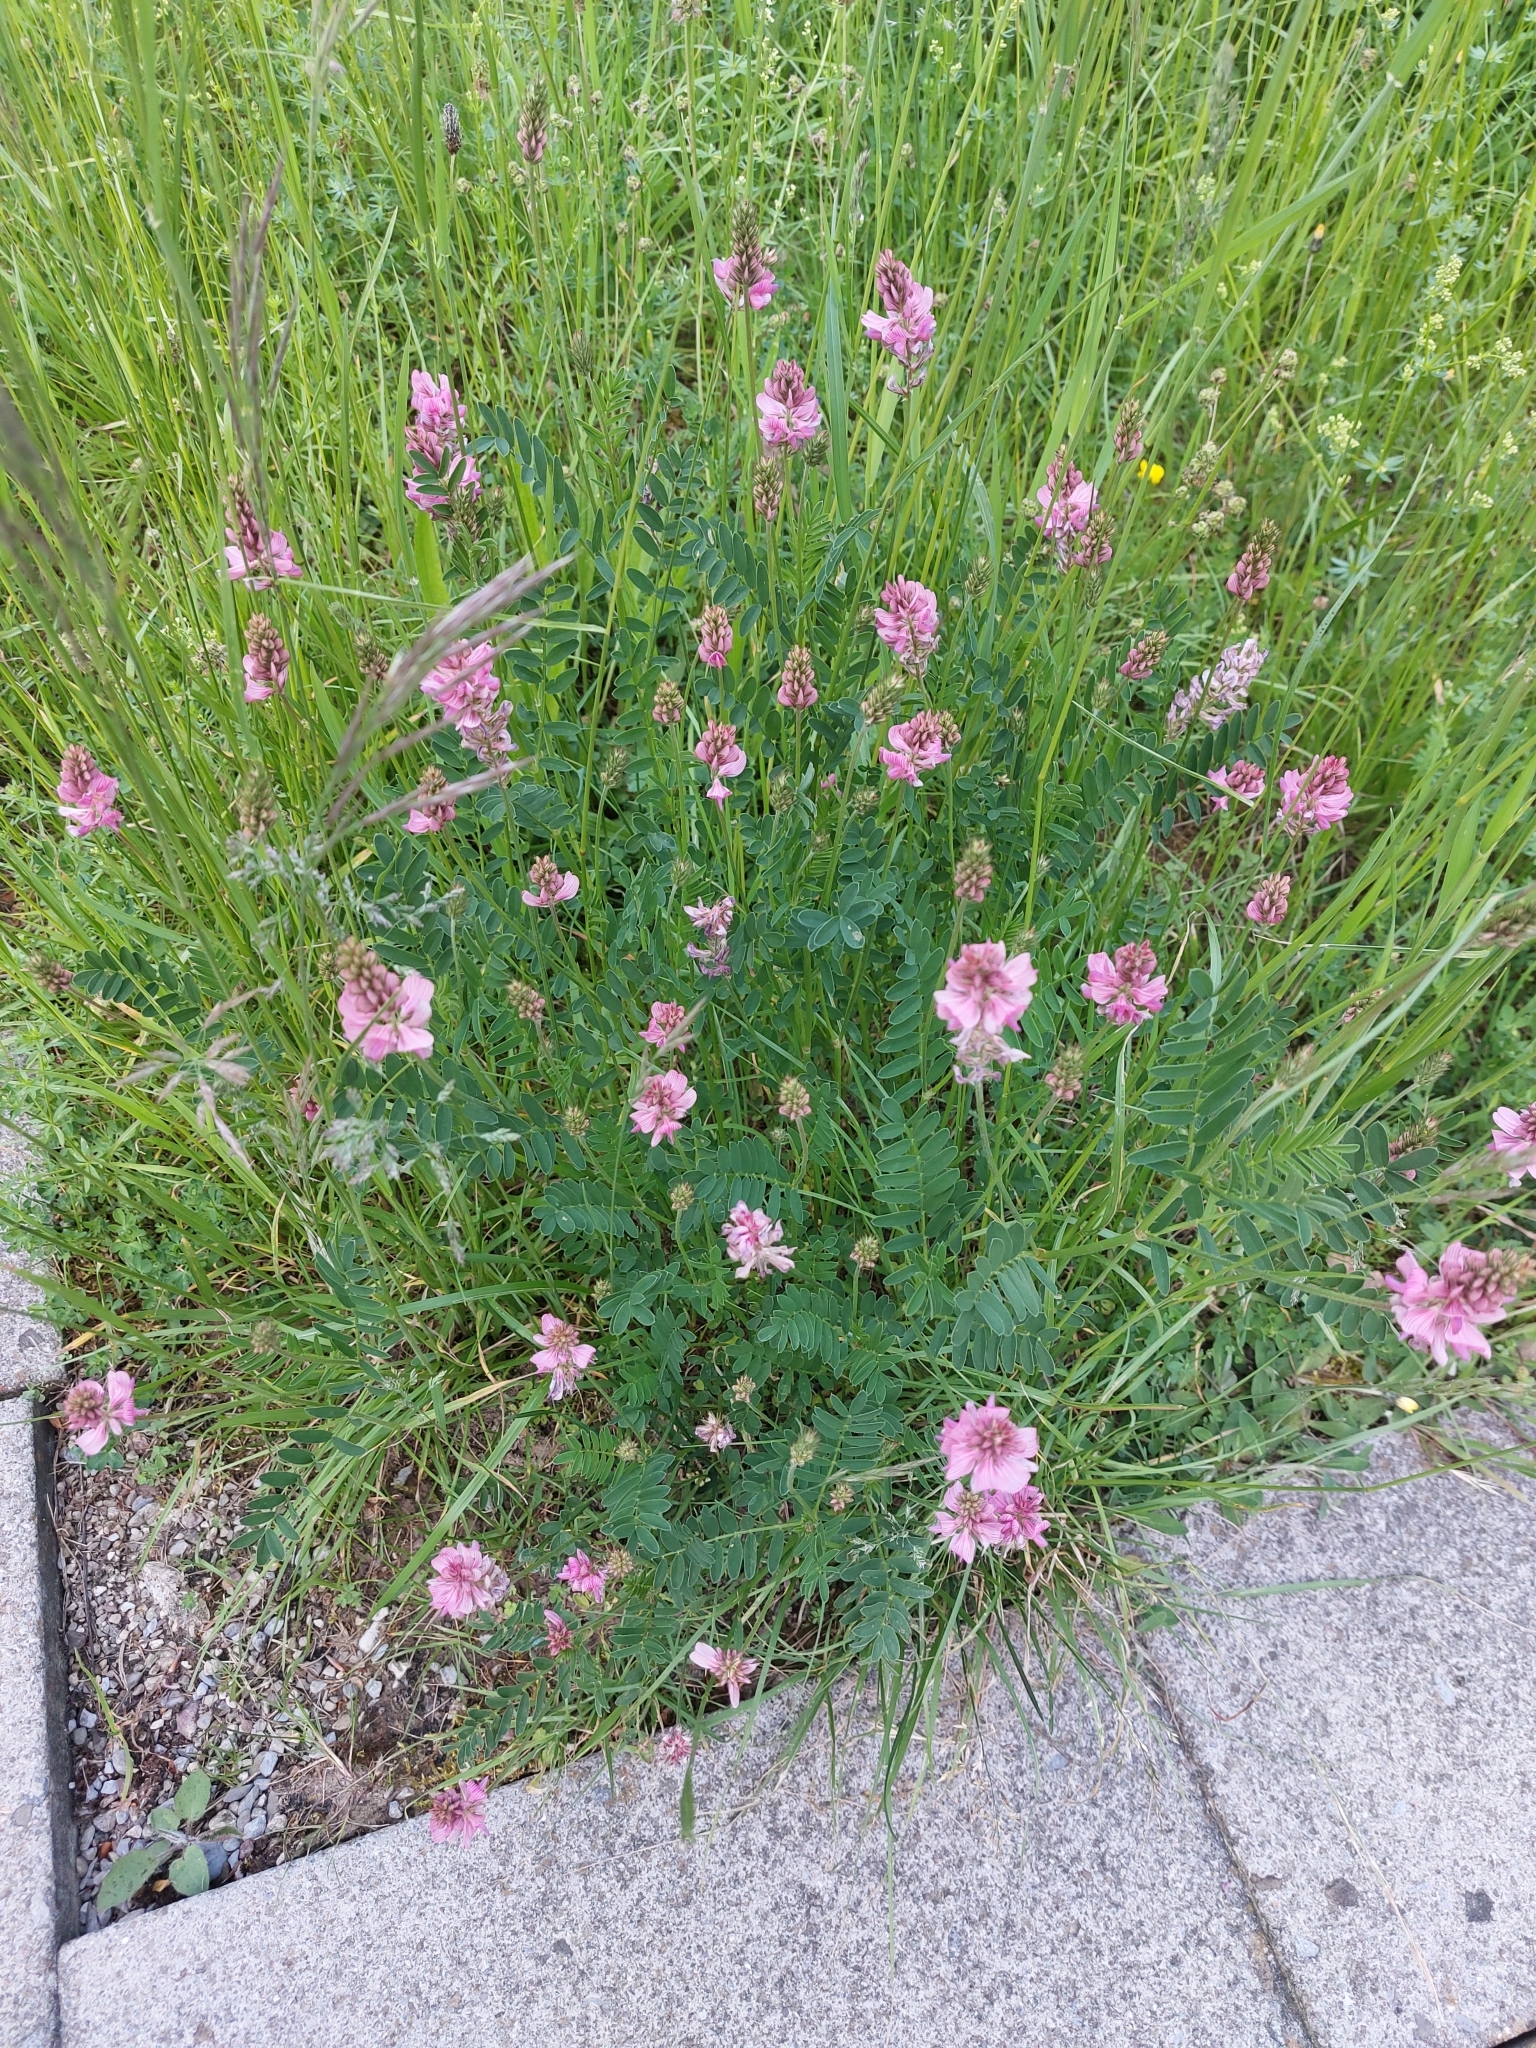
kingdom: Plantae
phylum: Tracheophyta
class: Magnoliopsida
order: Fabales
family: Fabaceae
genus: Onobrychis
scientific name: Onobrychis viciifolia
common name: Sainfoin
